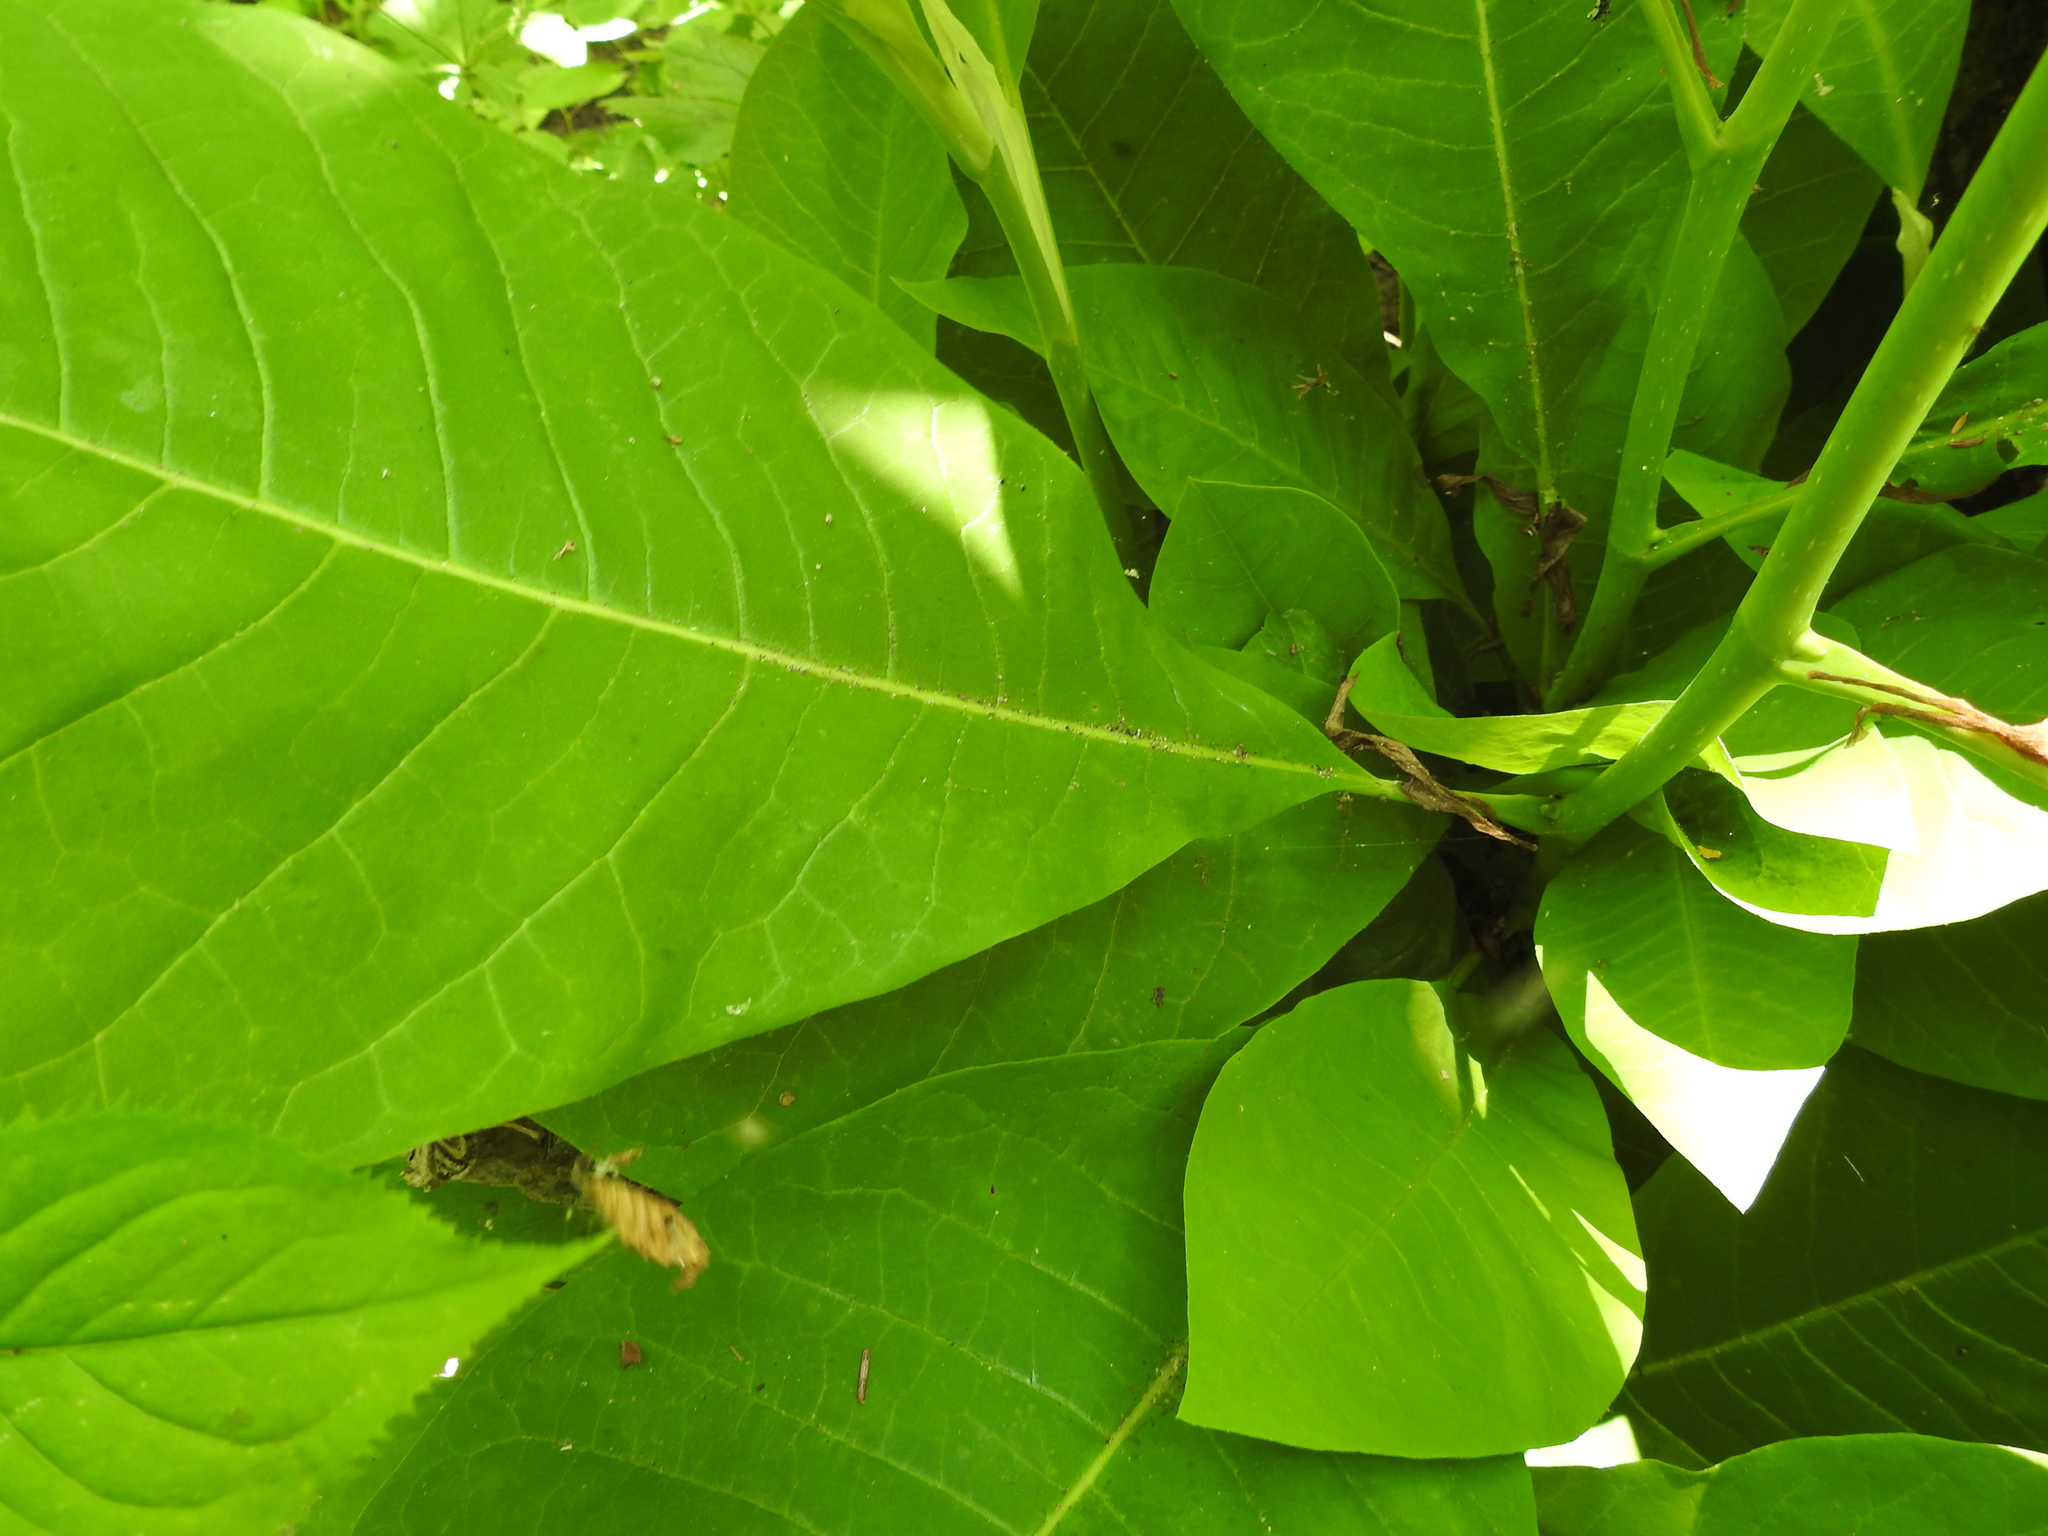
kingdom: Plantae
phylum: Tracheophyta
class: Magnoliopsida
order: Magnoliales
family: Magnoliaceae
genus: Magnolia
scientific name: Magnolia tripetala
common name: Umbrella magnolia
